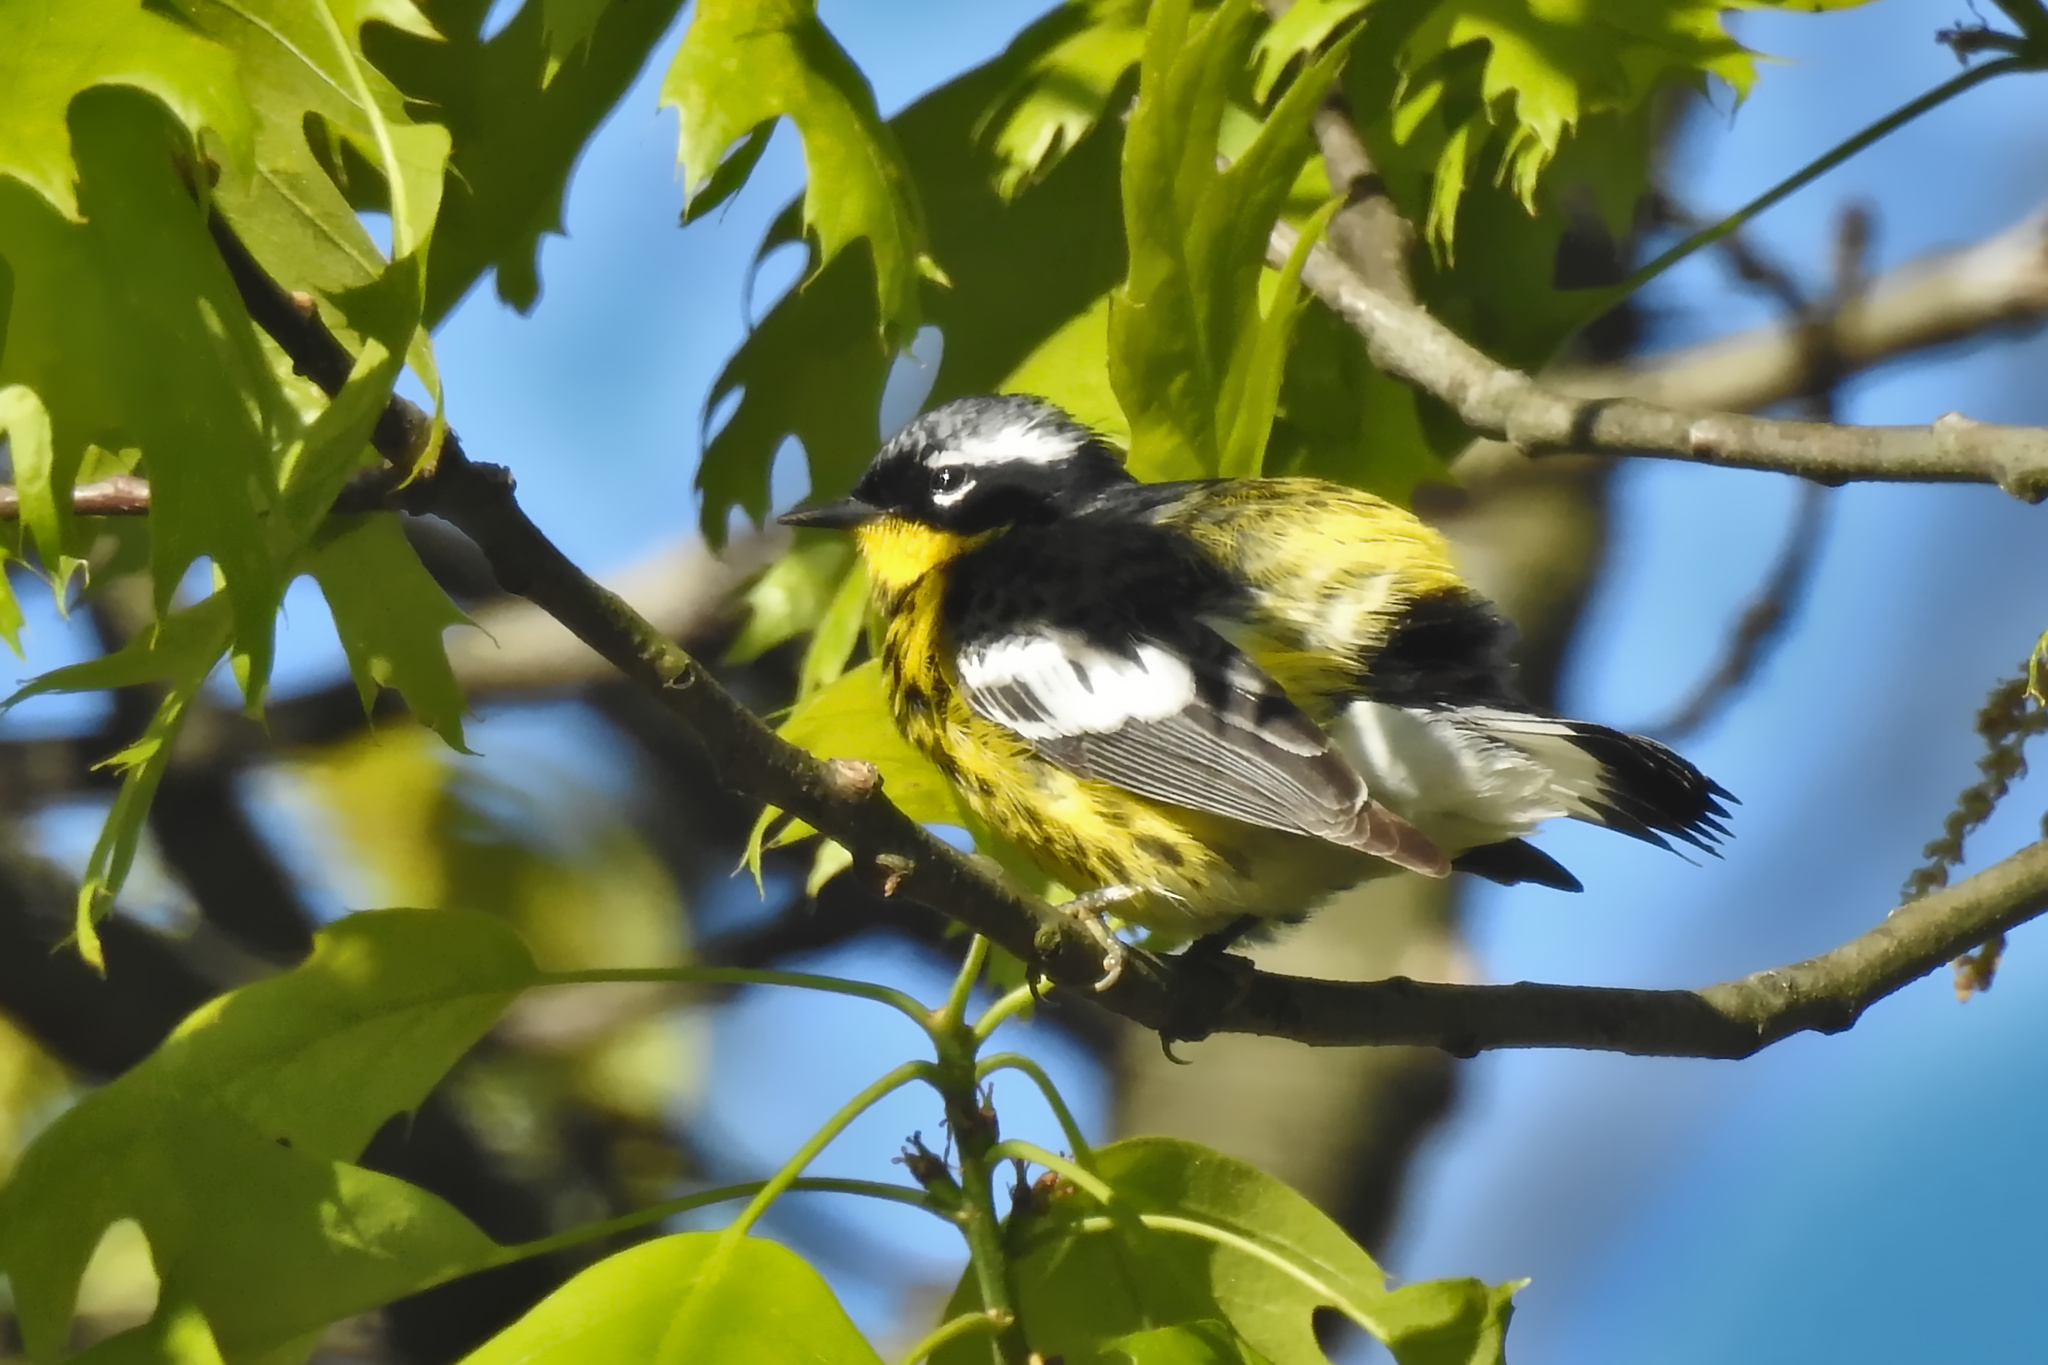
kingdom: Animalia
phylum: Chordata
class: Aves
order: Passeriformes
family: Parulidae
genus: Setophaga
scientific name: Setophaga magnolia
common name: Magnolia warbler
